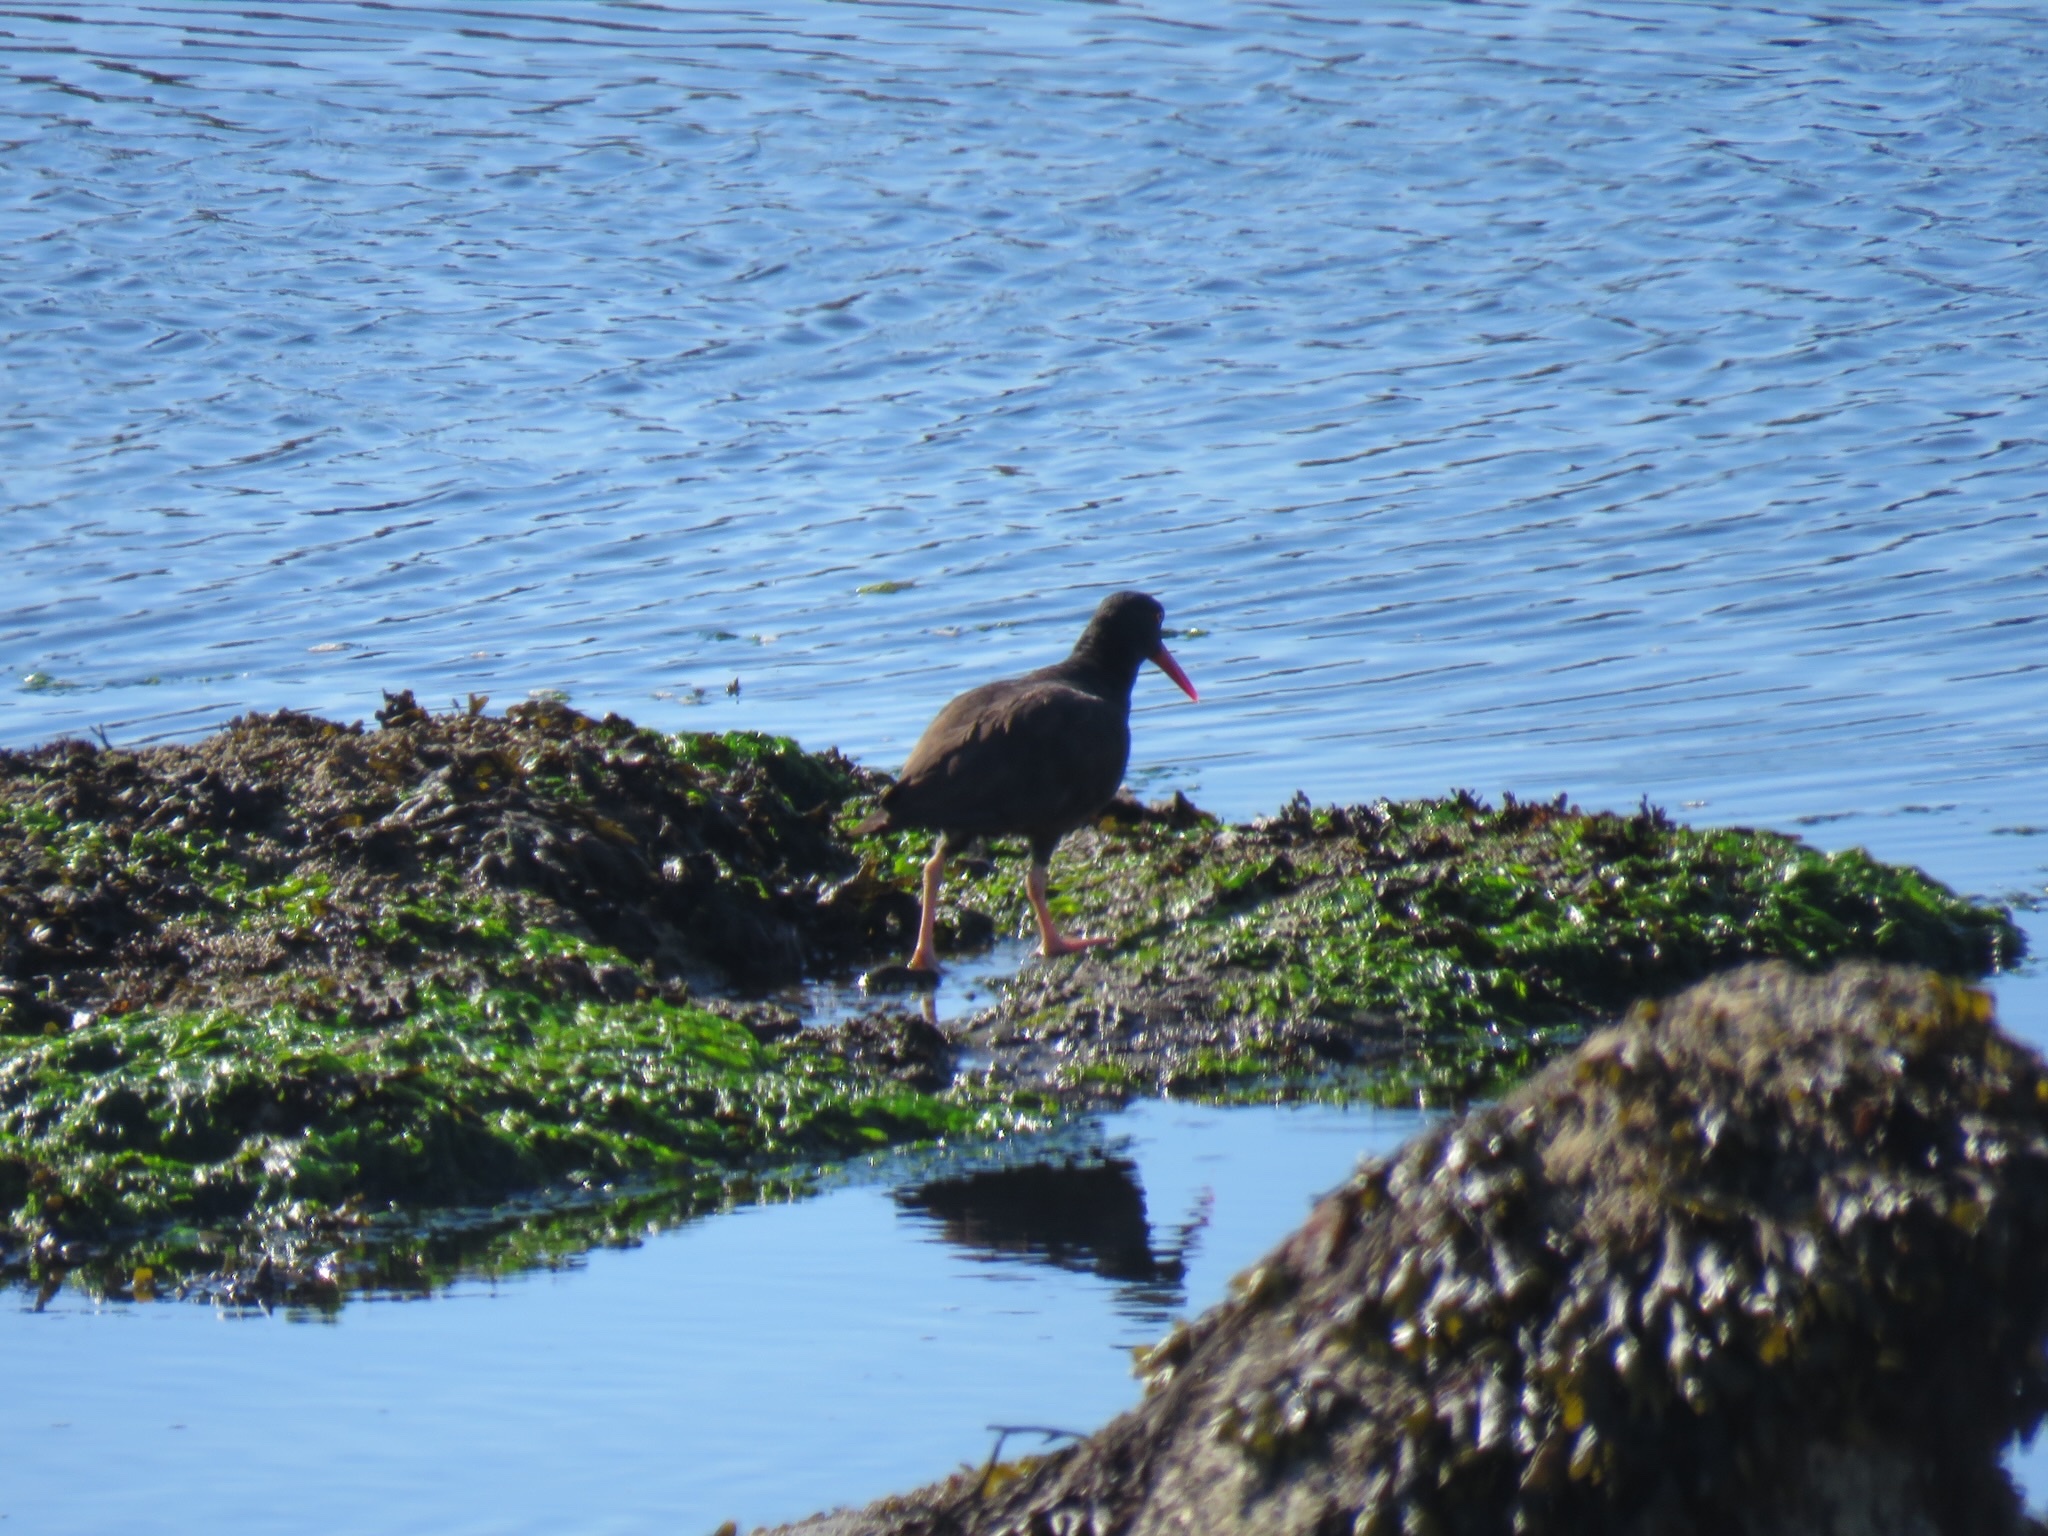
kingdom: Animalia
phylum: Chordata
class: Aves
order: Charadriiformes
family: Haematopodidae
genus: Haematopus
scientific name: Haematopus bachmani
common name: Black oystercatcher
